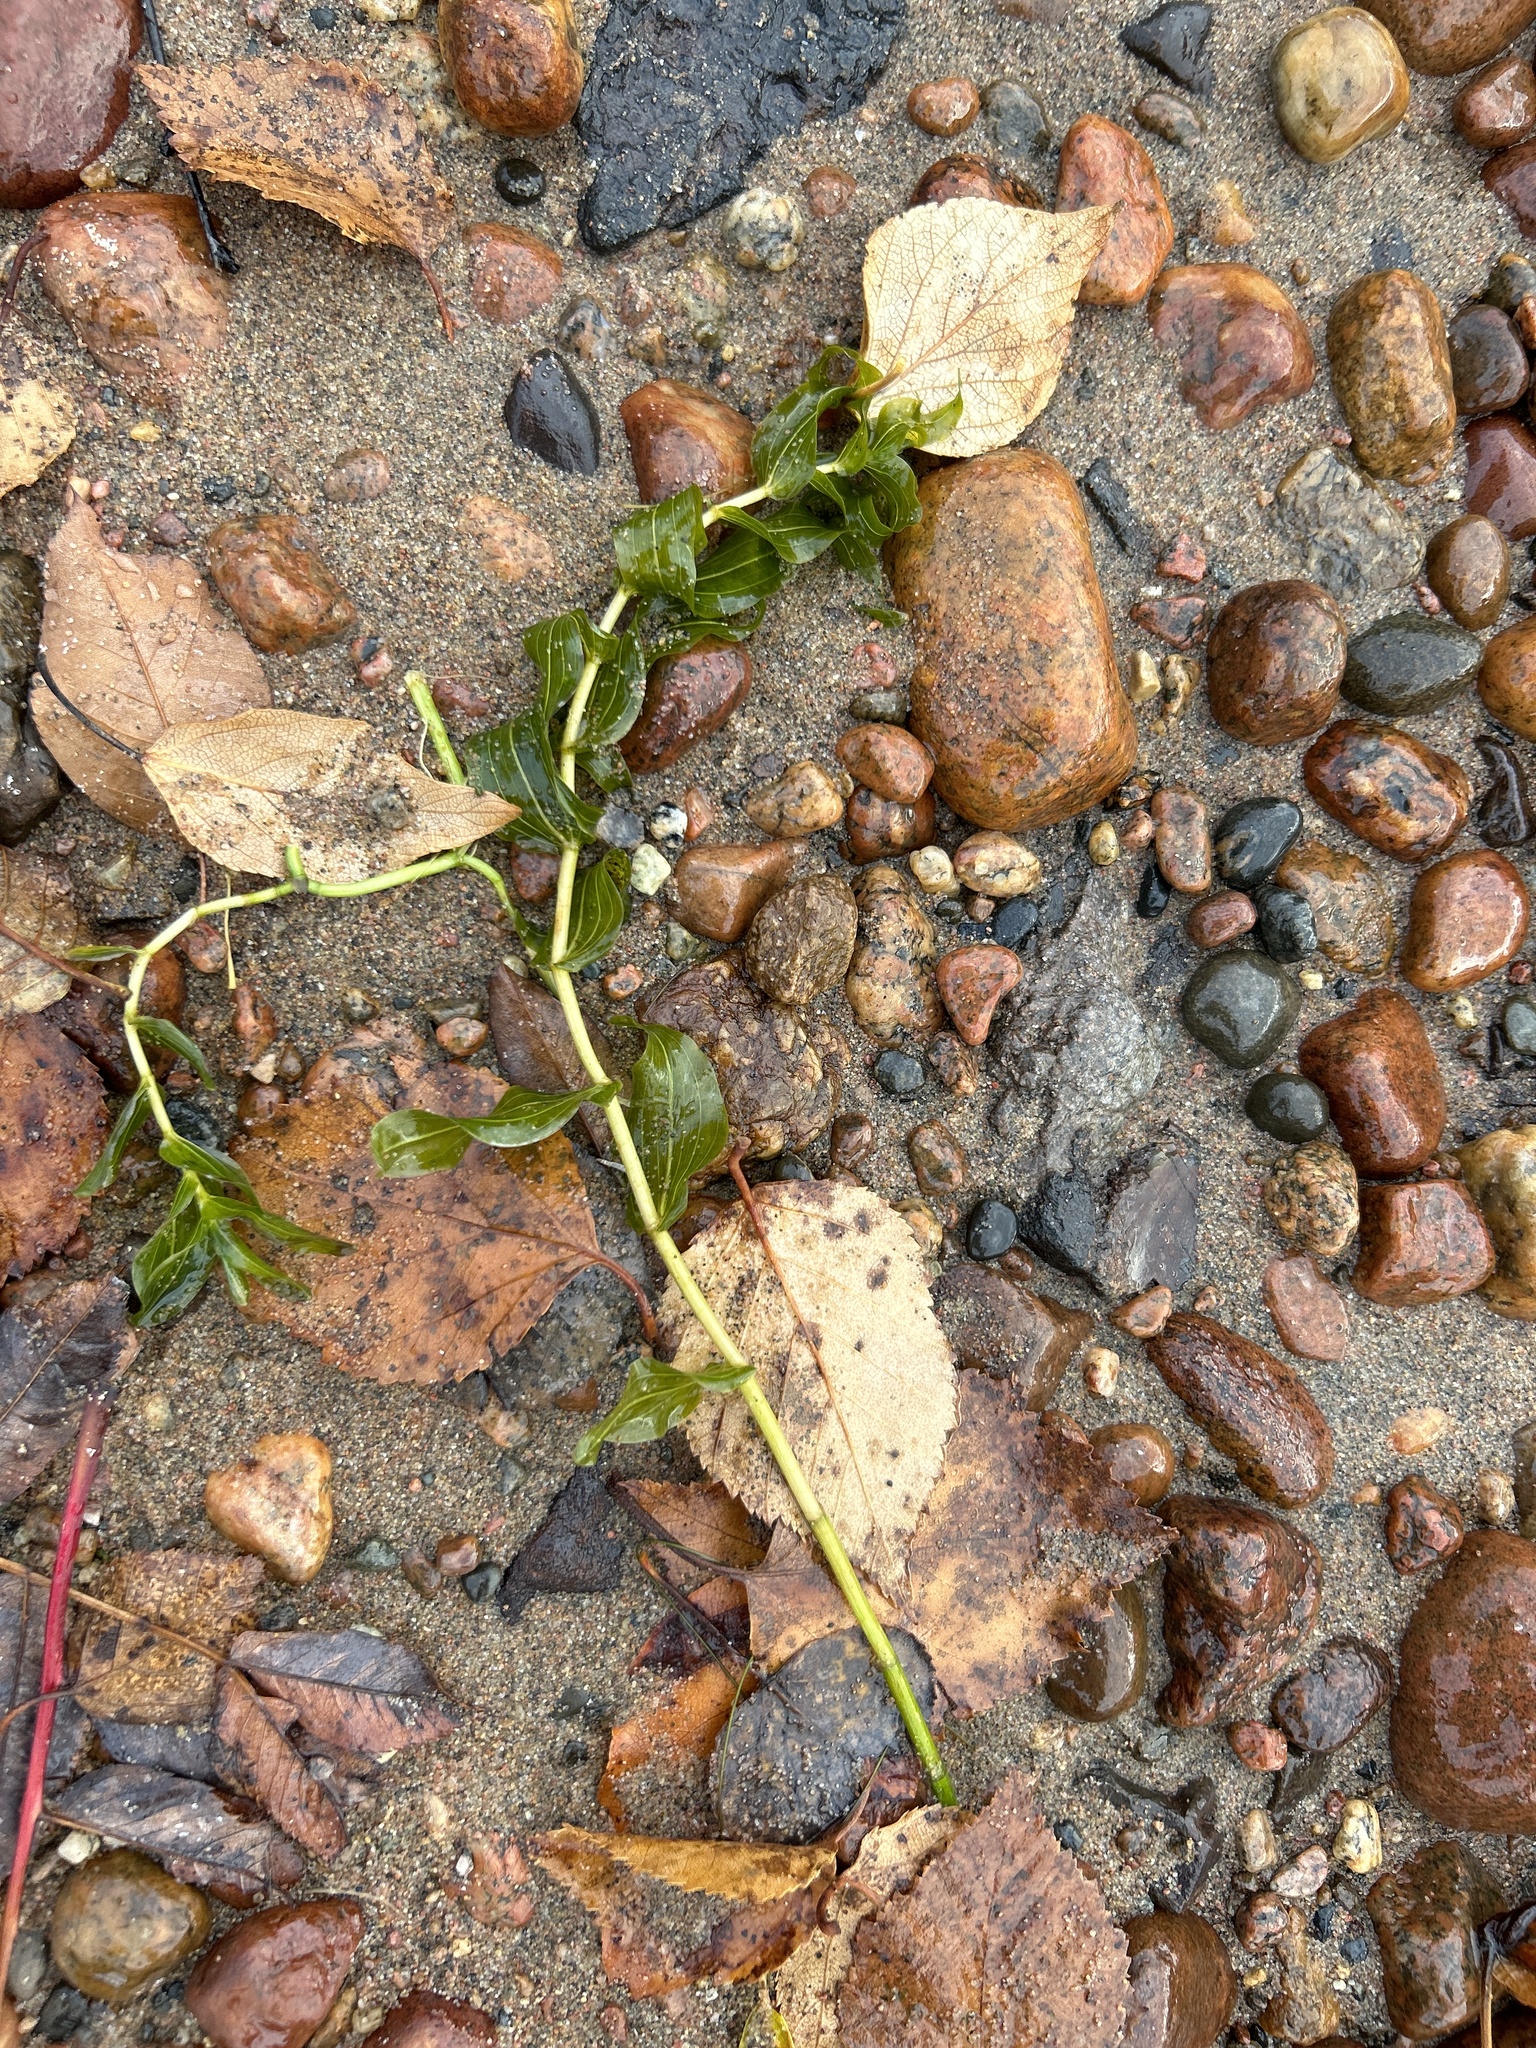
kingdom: Plantae
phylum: Tracheophyta
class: Liliopsida
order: Alismatales
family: Potamogetonaceae
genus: Potamogeton
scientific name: Potamogeton richardsonii
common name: Richardson's pondweed
